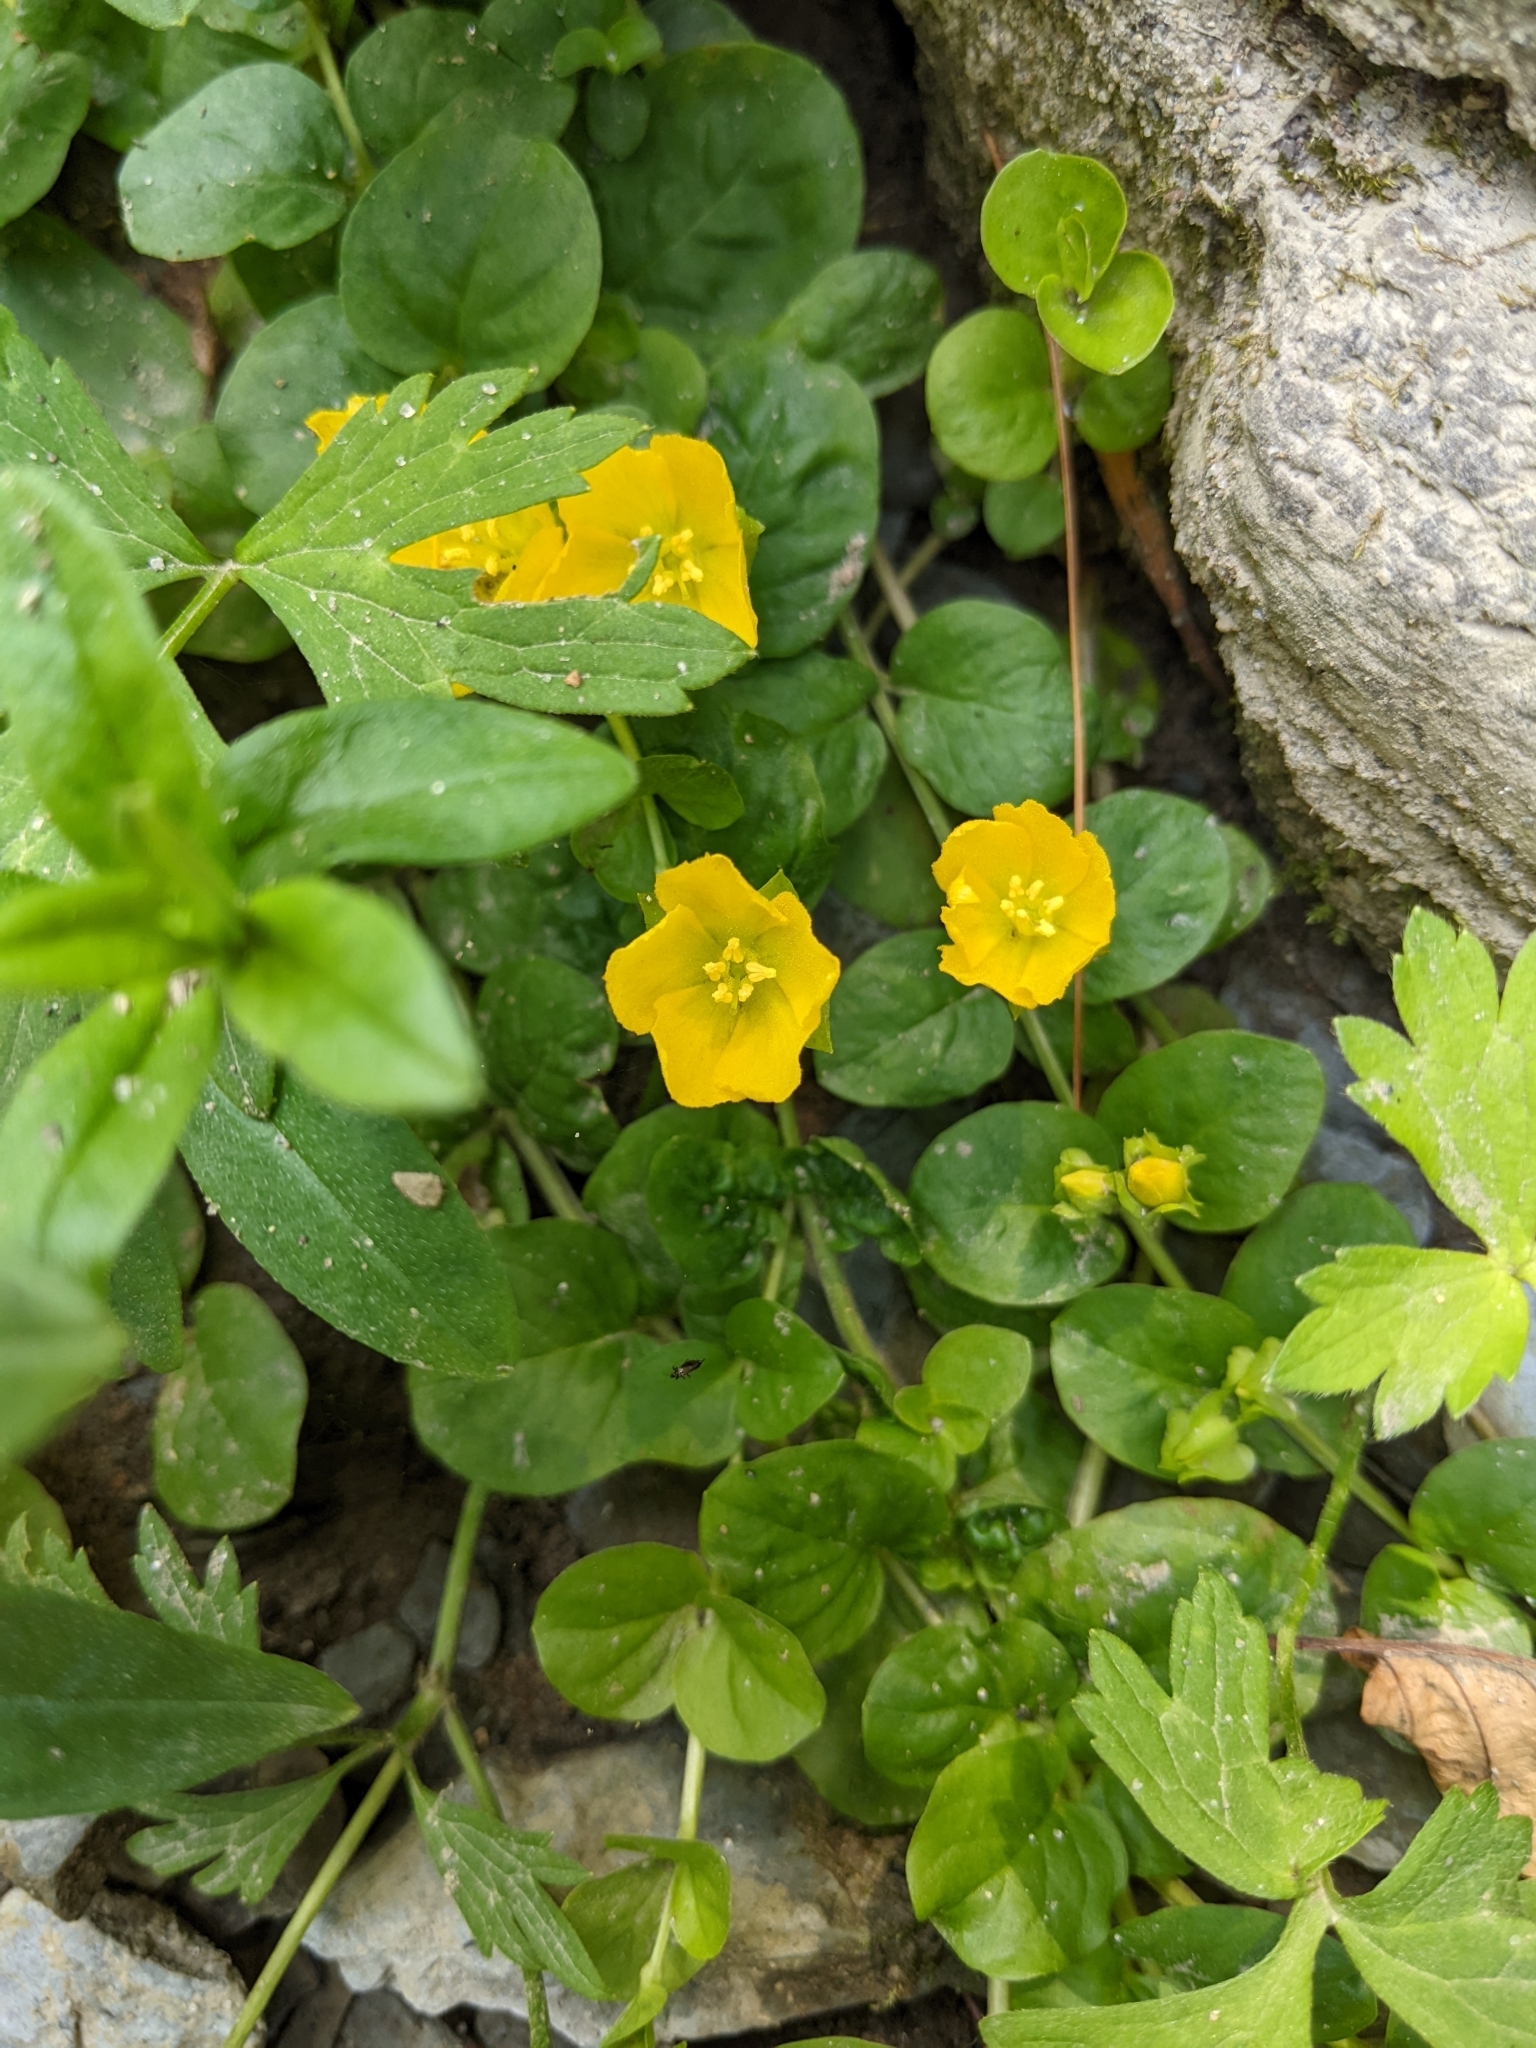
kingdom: Plantae
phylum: Tracheophyta
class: Magnoliopsida
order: Ericales
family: Primulaceae
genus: Lysimachia
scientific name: Lysimachia nummularia
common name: Moneywort
